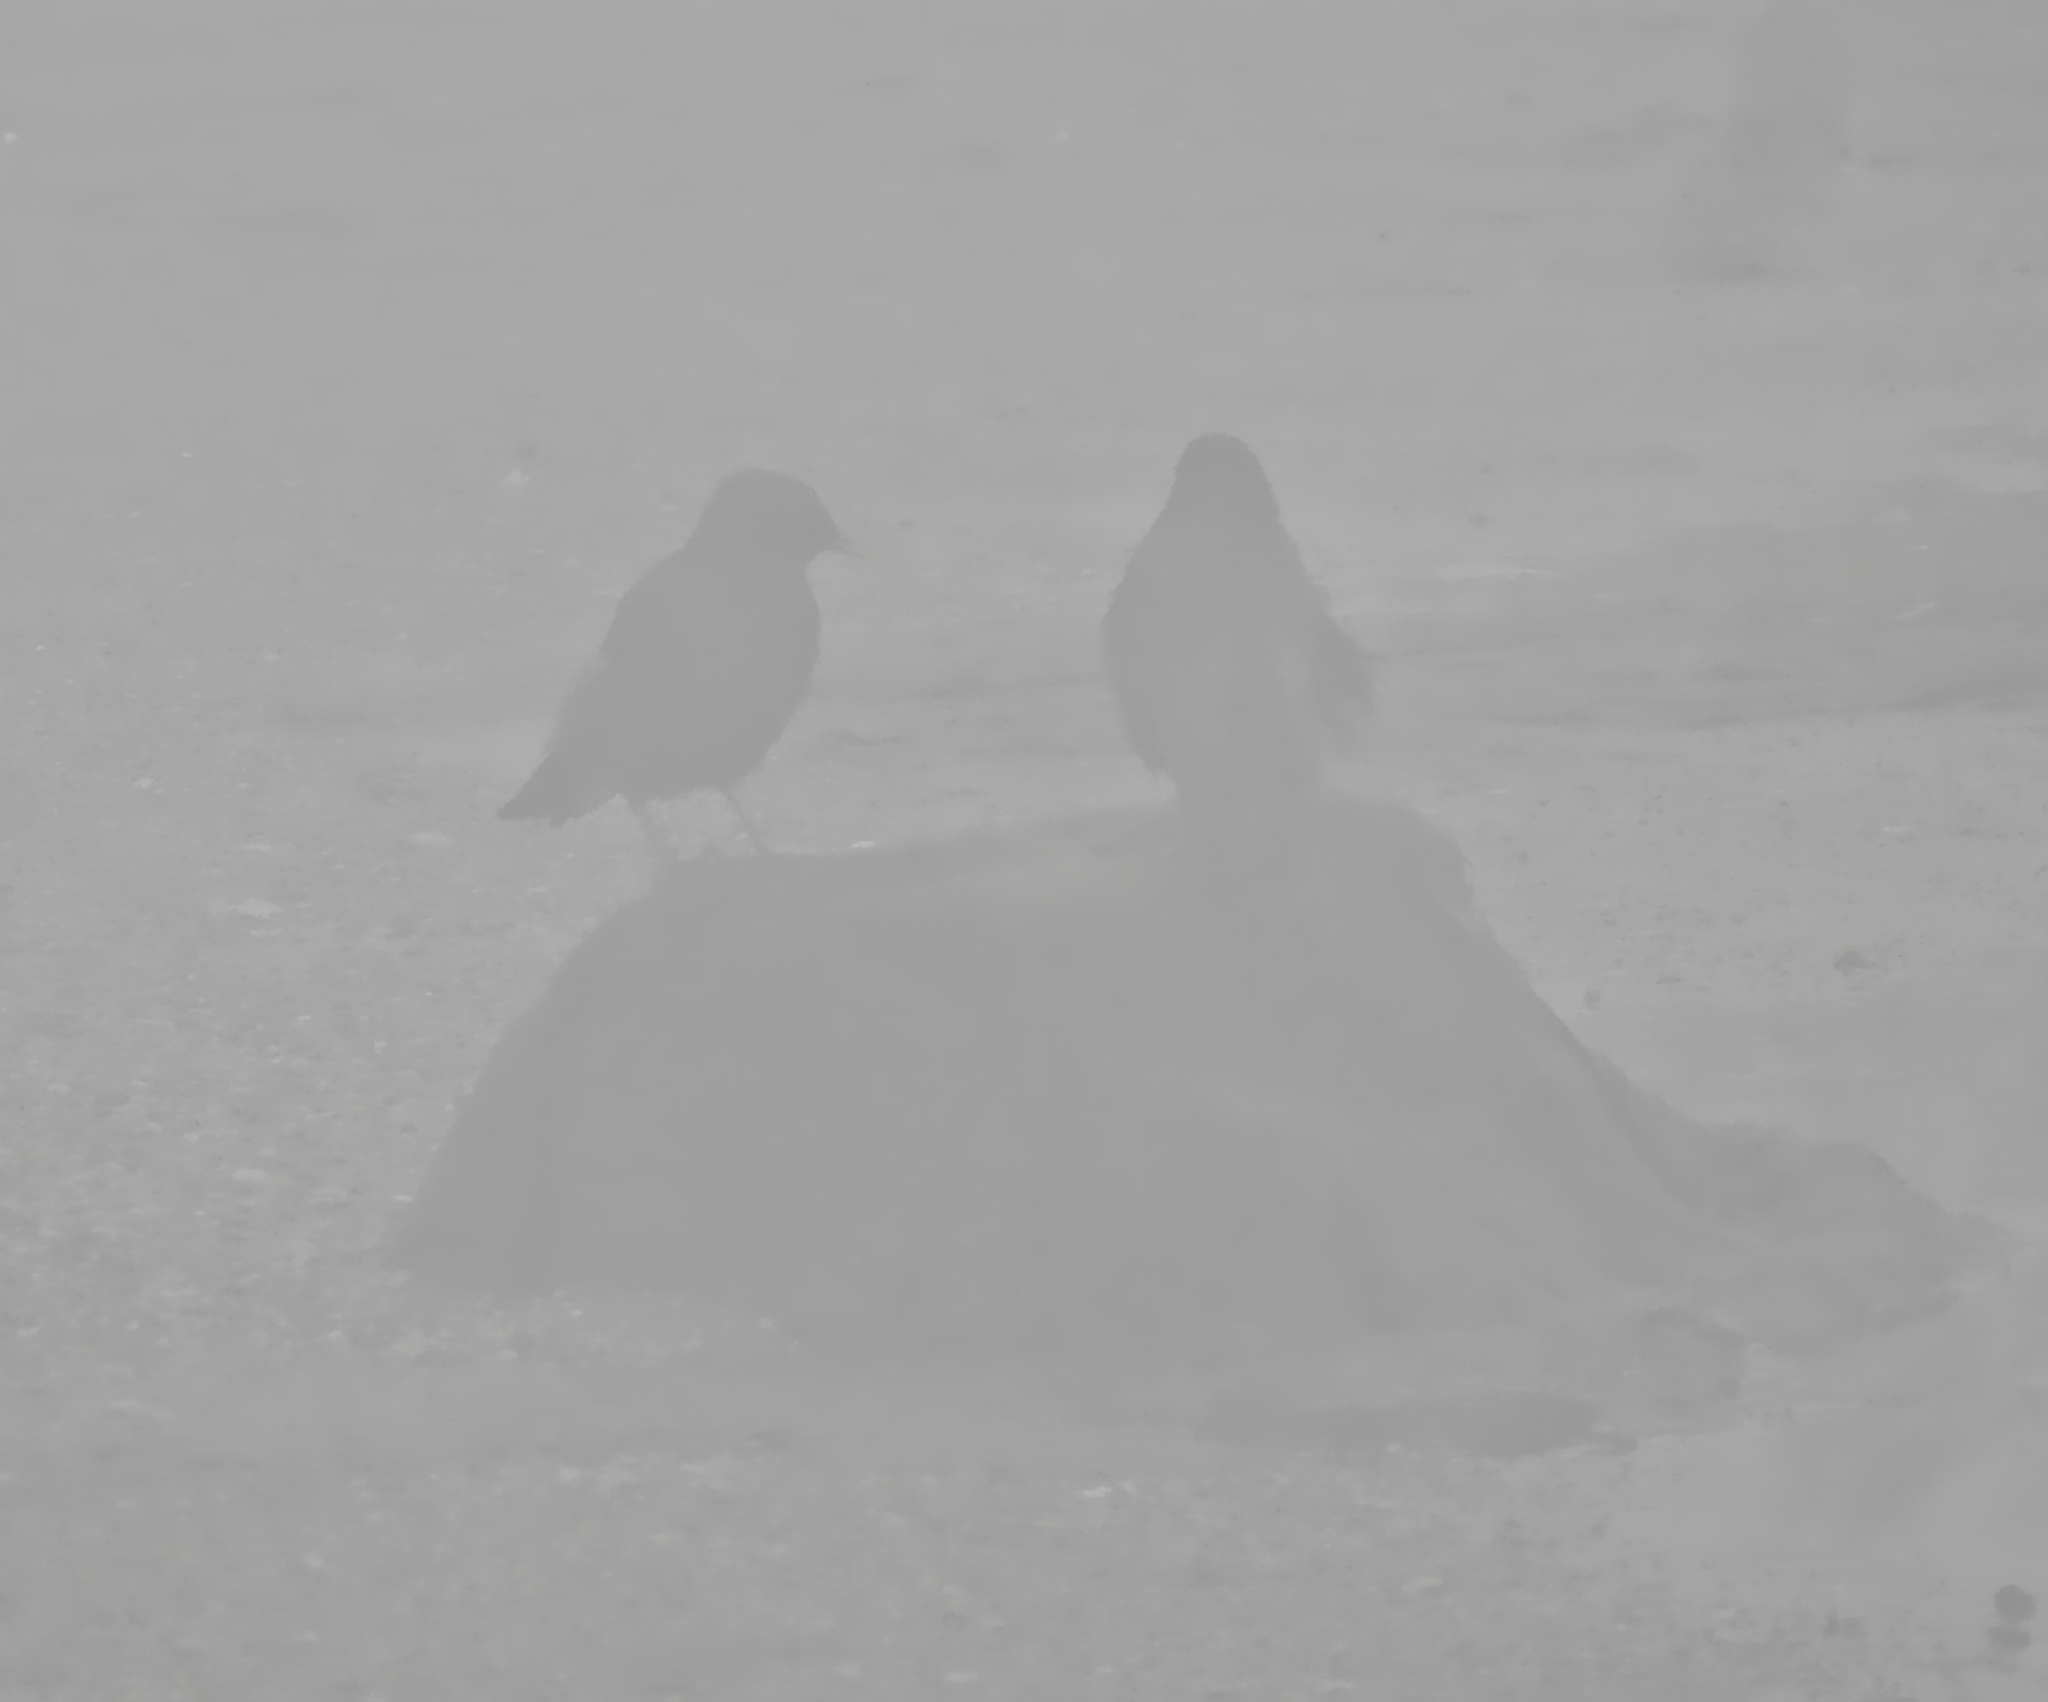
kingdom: Animalia
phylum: Chordata
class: Aves
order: Passeriformes
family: Sturnidae
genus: Sturnus
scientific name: Sturnus vulgaris
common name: Common starling
